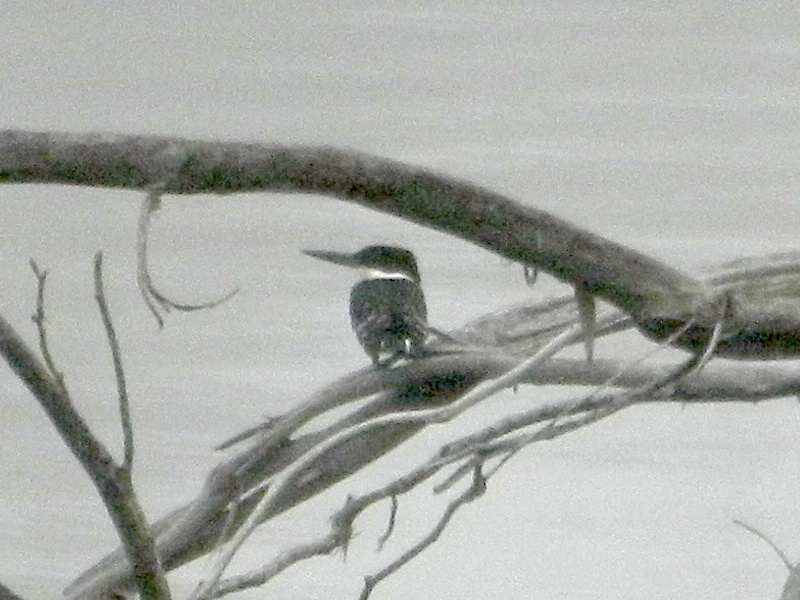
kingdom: Animalia
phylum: Chordata
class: Aves
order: Coraciiformes
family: Alcedinidae
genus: Chloroceryle
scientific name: Chloroceryle americana
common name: Green kingfisher
